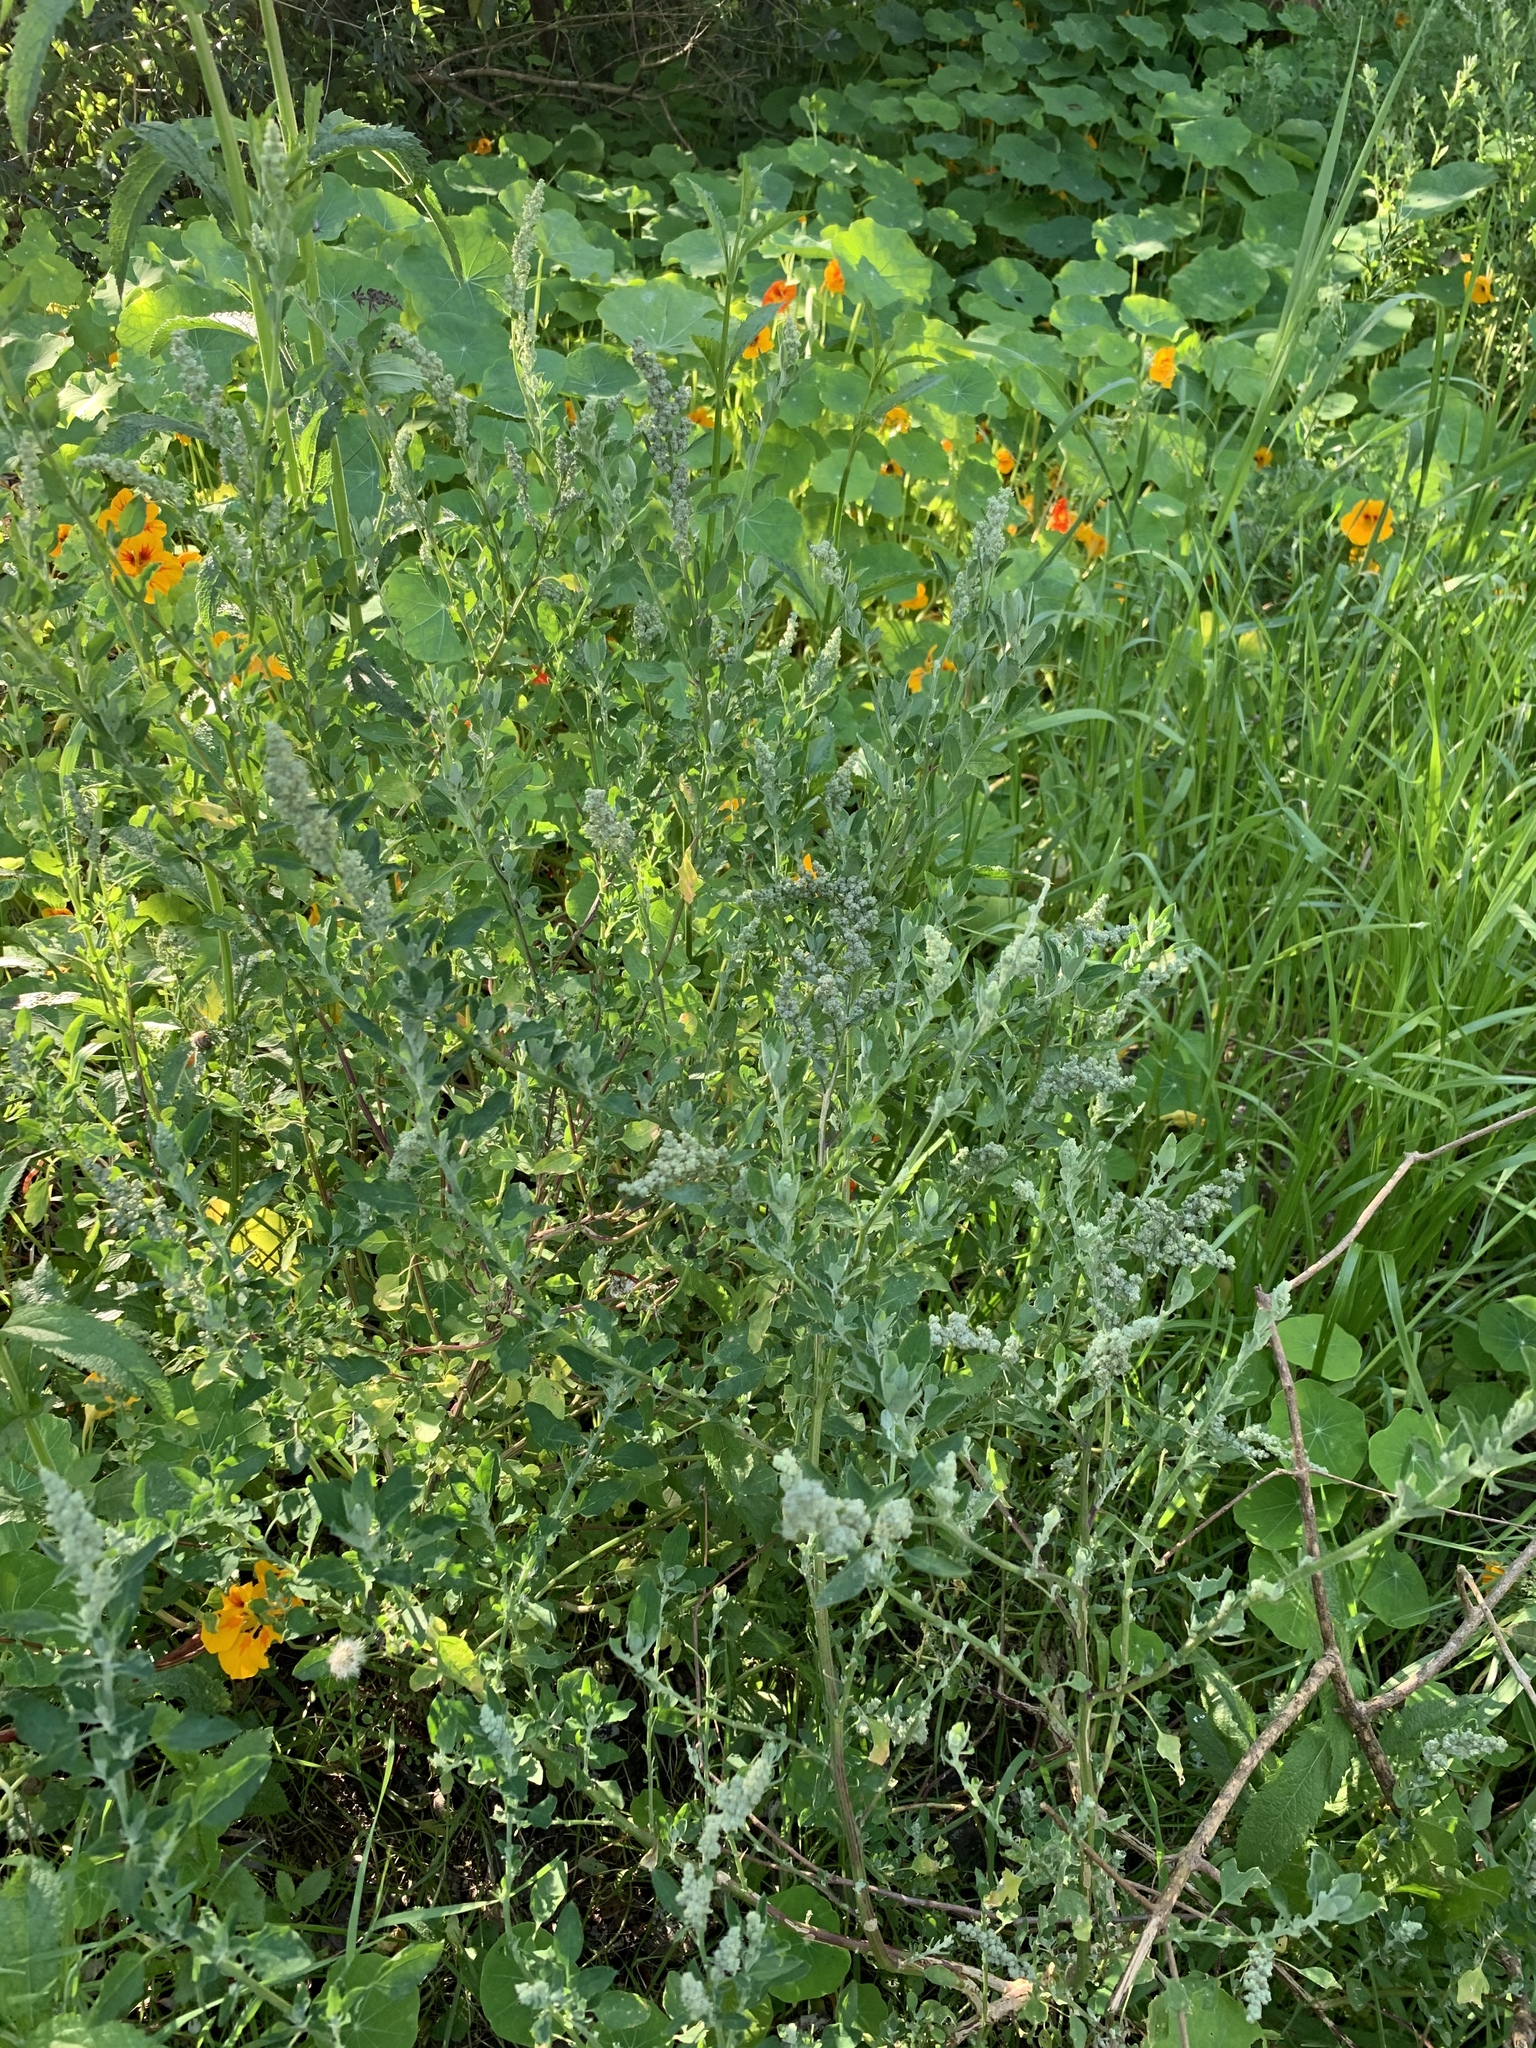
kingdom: Plantae
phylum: Tracheophyta
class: Magnoliopsida
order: Caryophyllales
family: Amaranthaceae
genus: Chenopodium
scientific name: Chenopodium album
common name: Fat-hen
